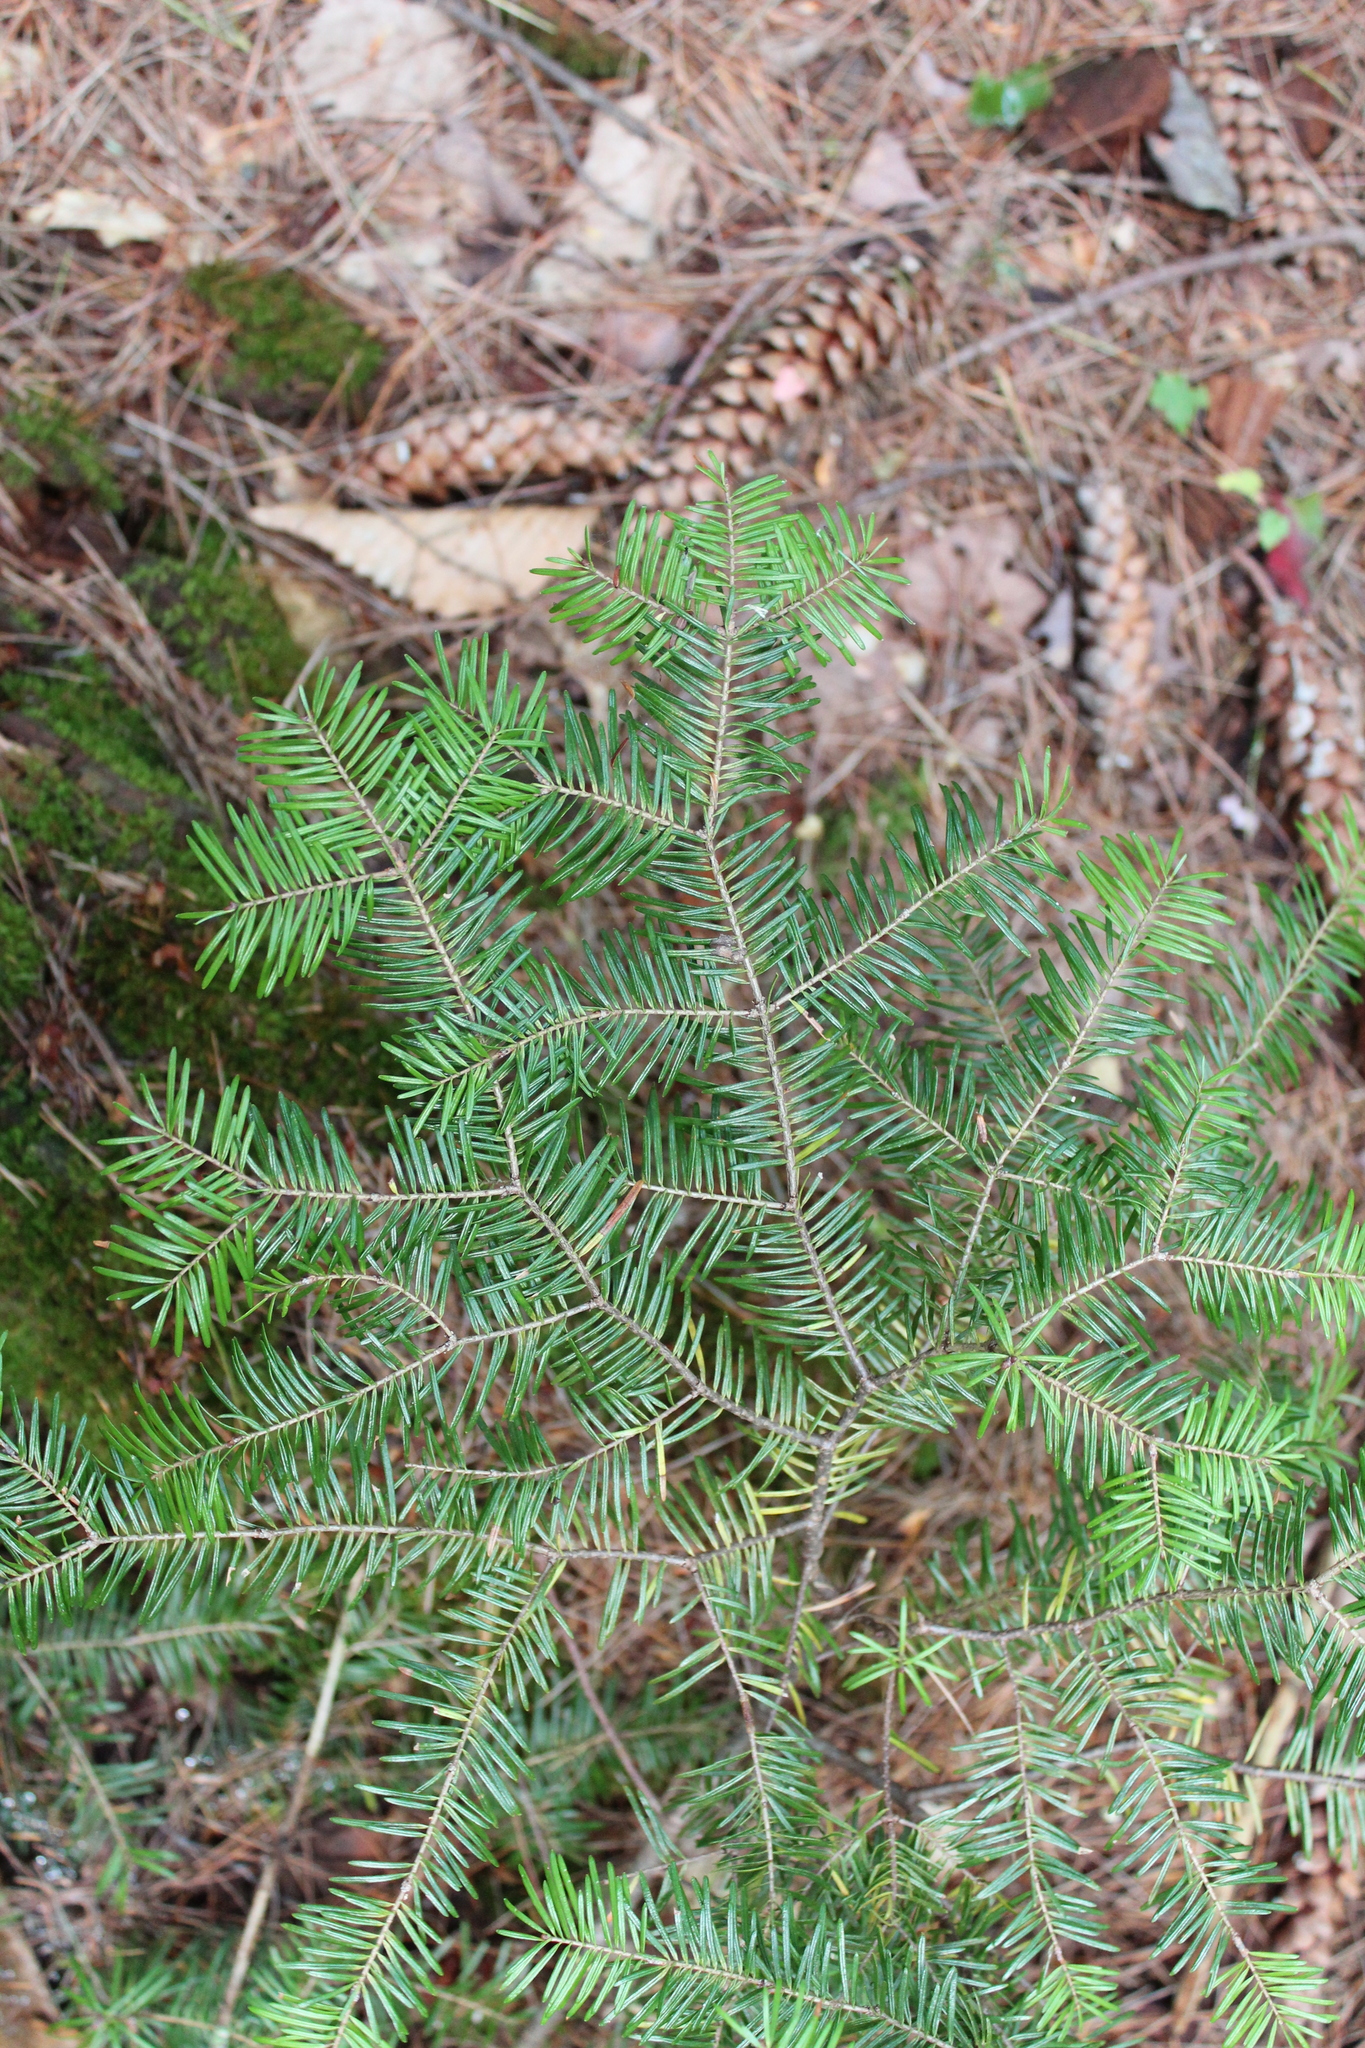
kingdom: Plantae
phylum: Tracheophyta
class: Pinopsida
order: Pinales
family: Pinaceae
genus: Abies
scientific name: Abies balsamea
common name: Balsam fir
